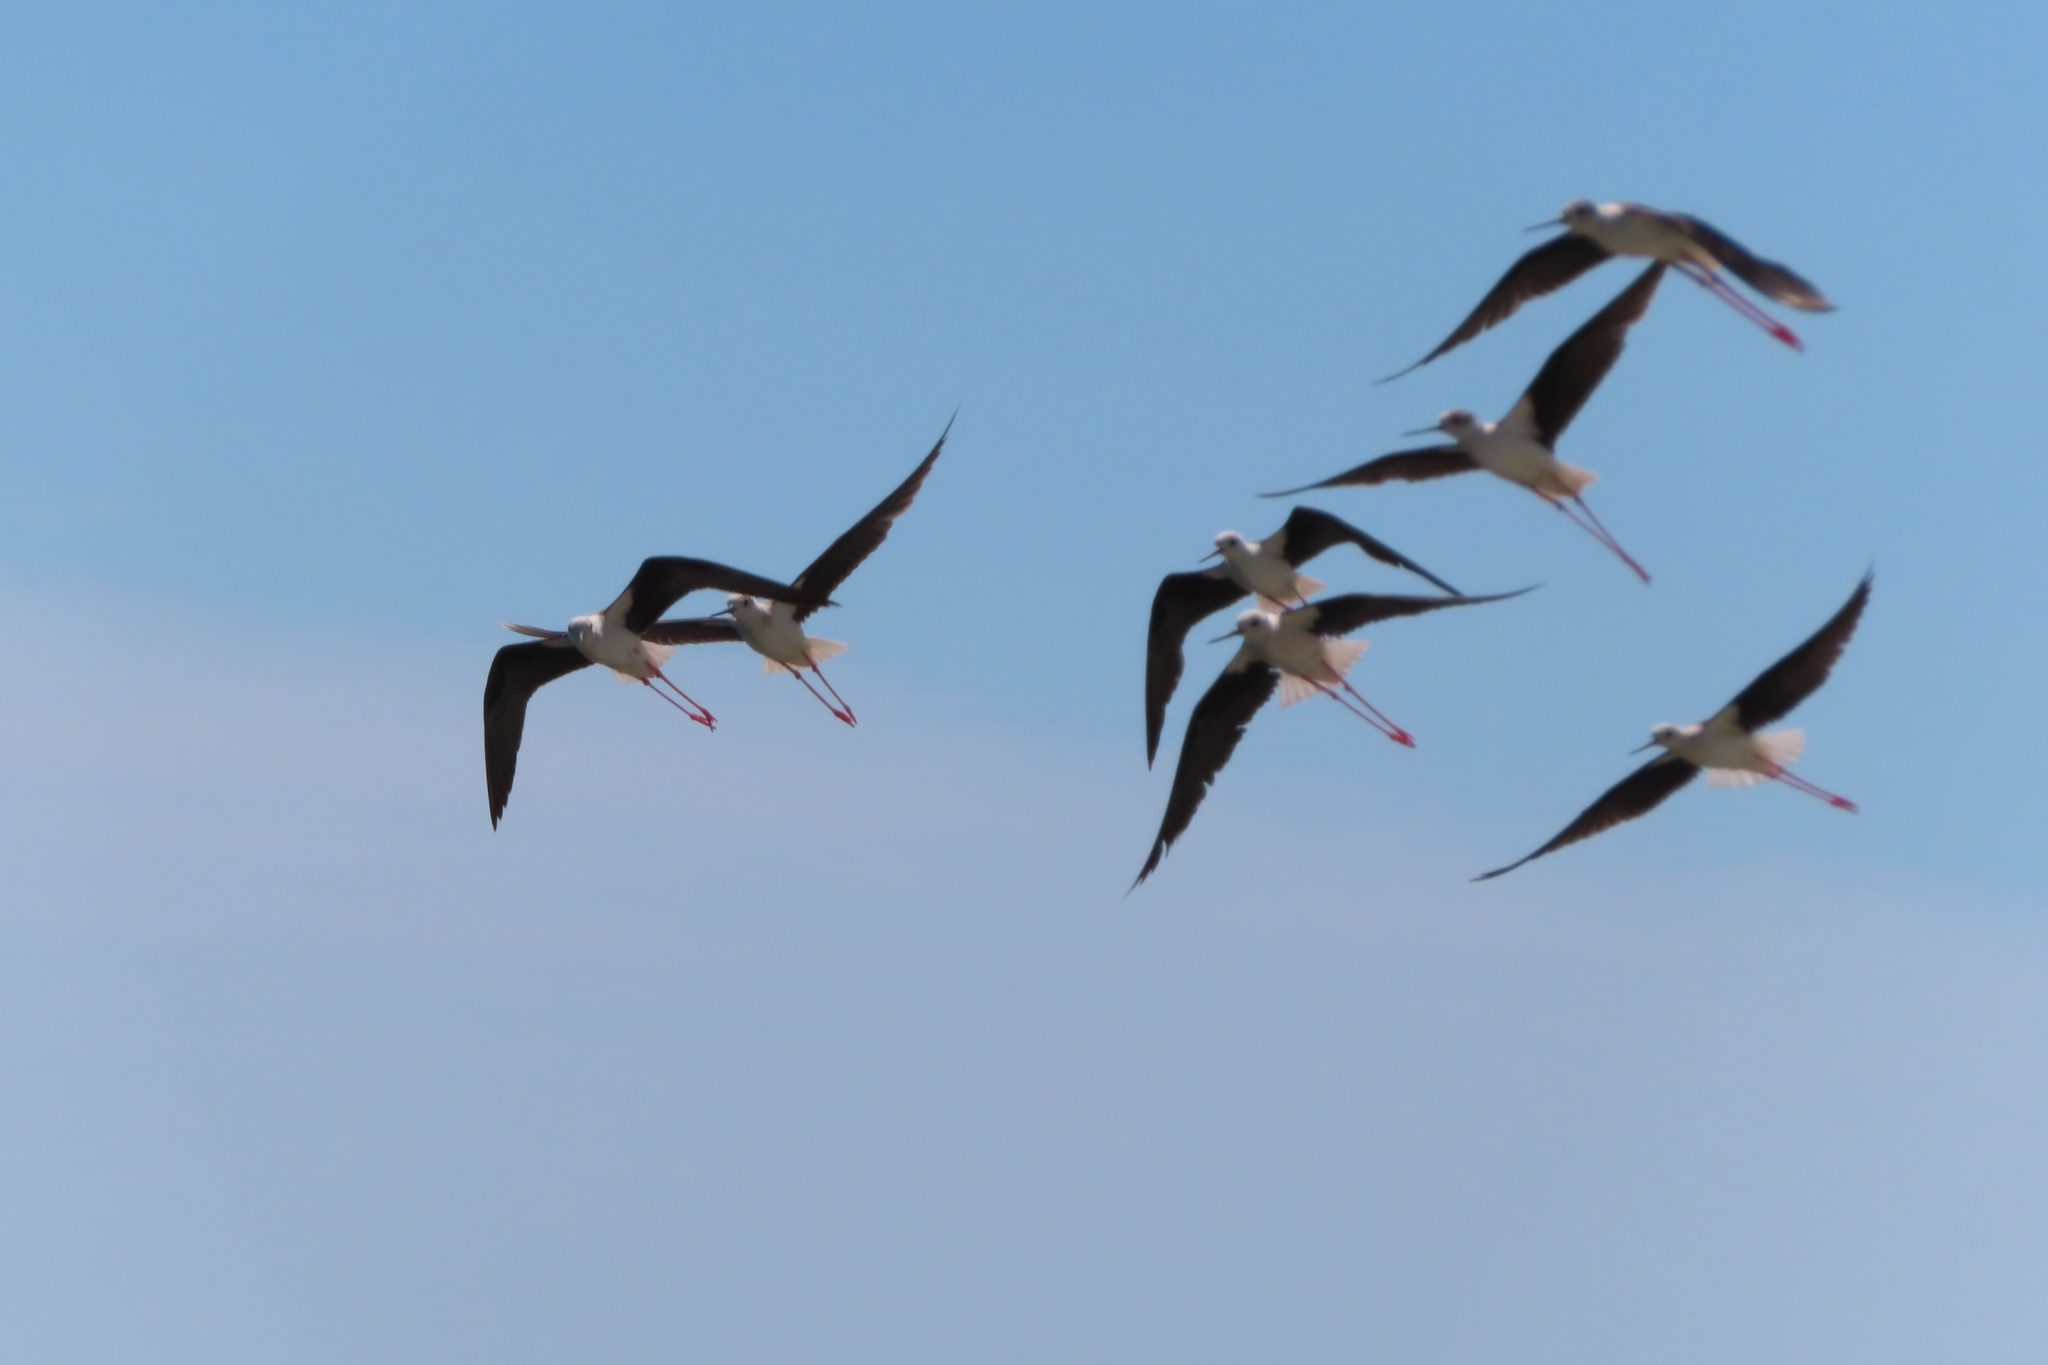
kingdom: Animalia
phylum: Chordata
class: Aves
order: Charadriiformes
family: Recurvirostridae
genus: Himantopus
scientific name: Himantopus himantopus
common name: Black-winged stilt
